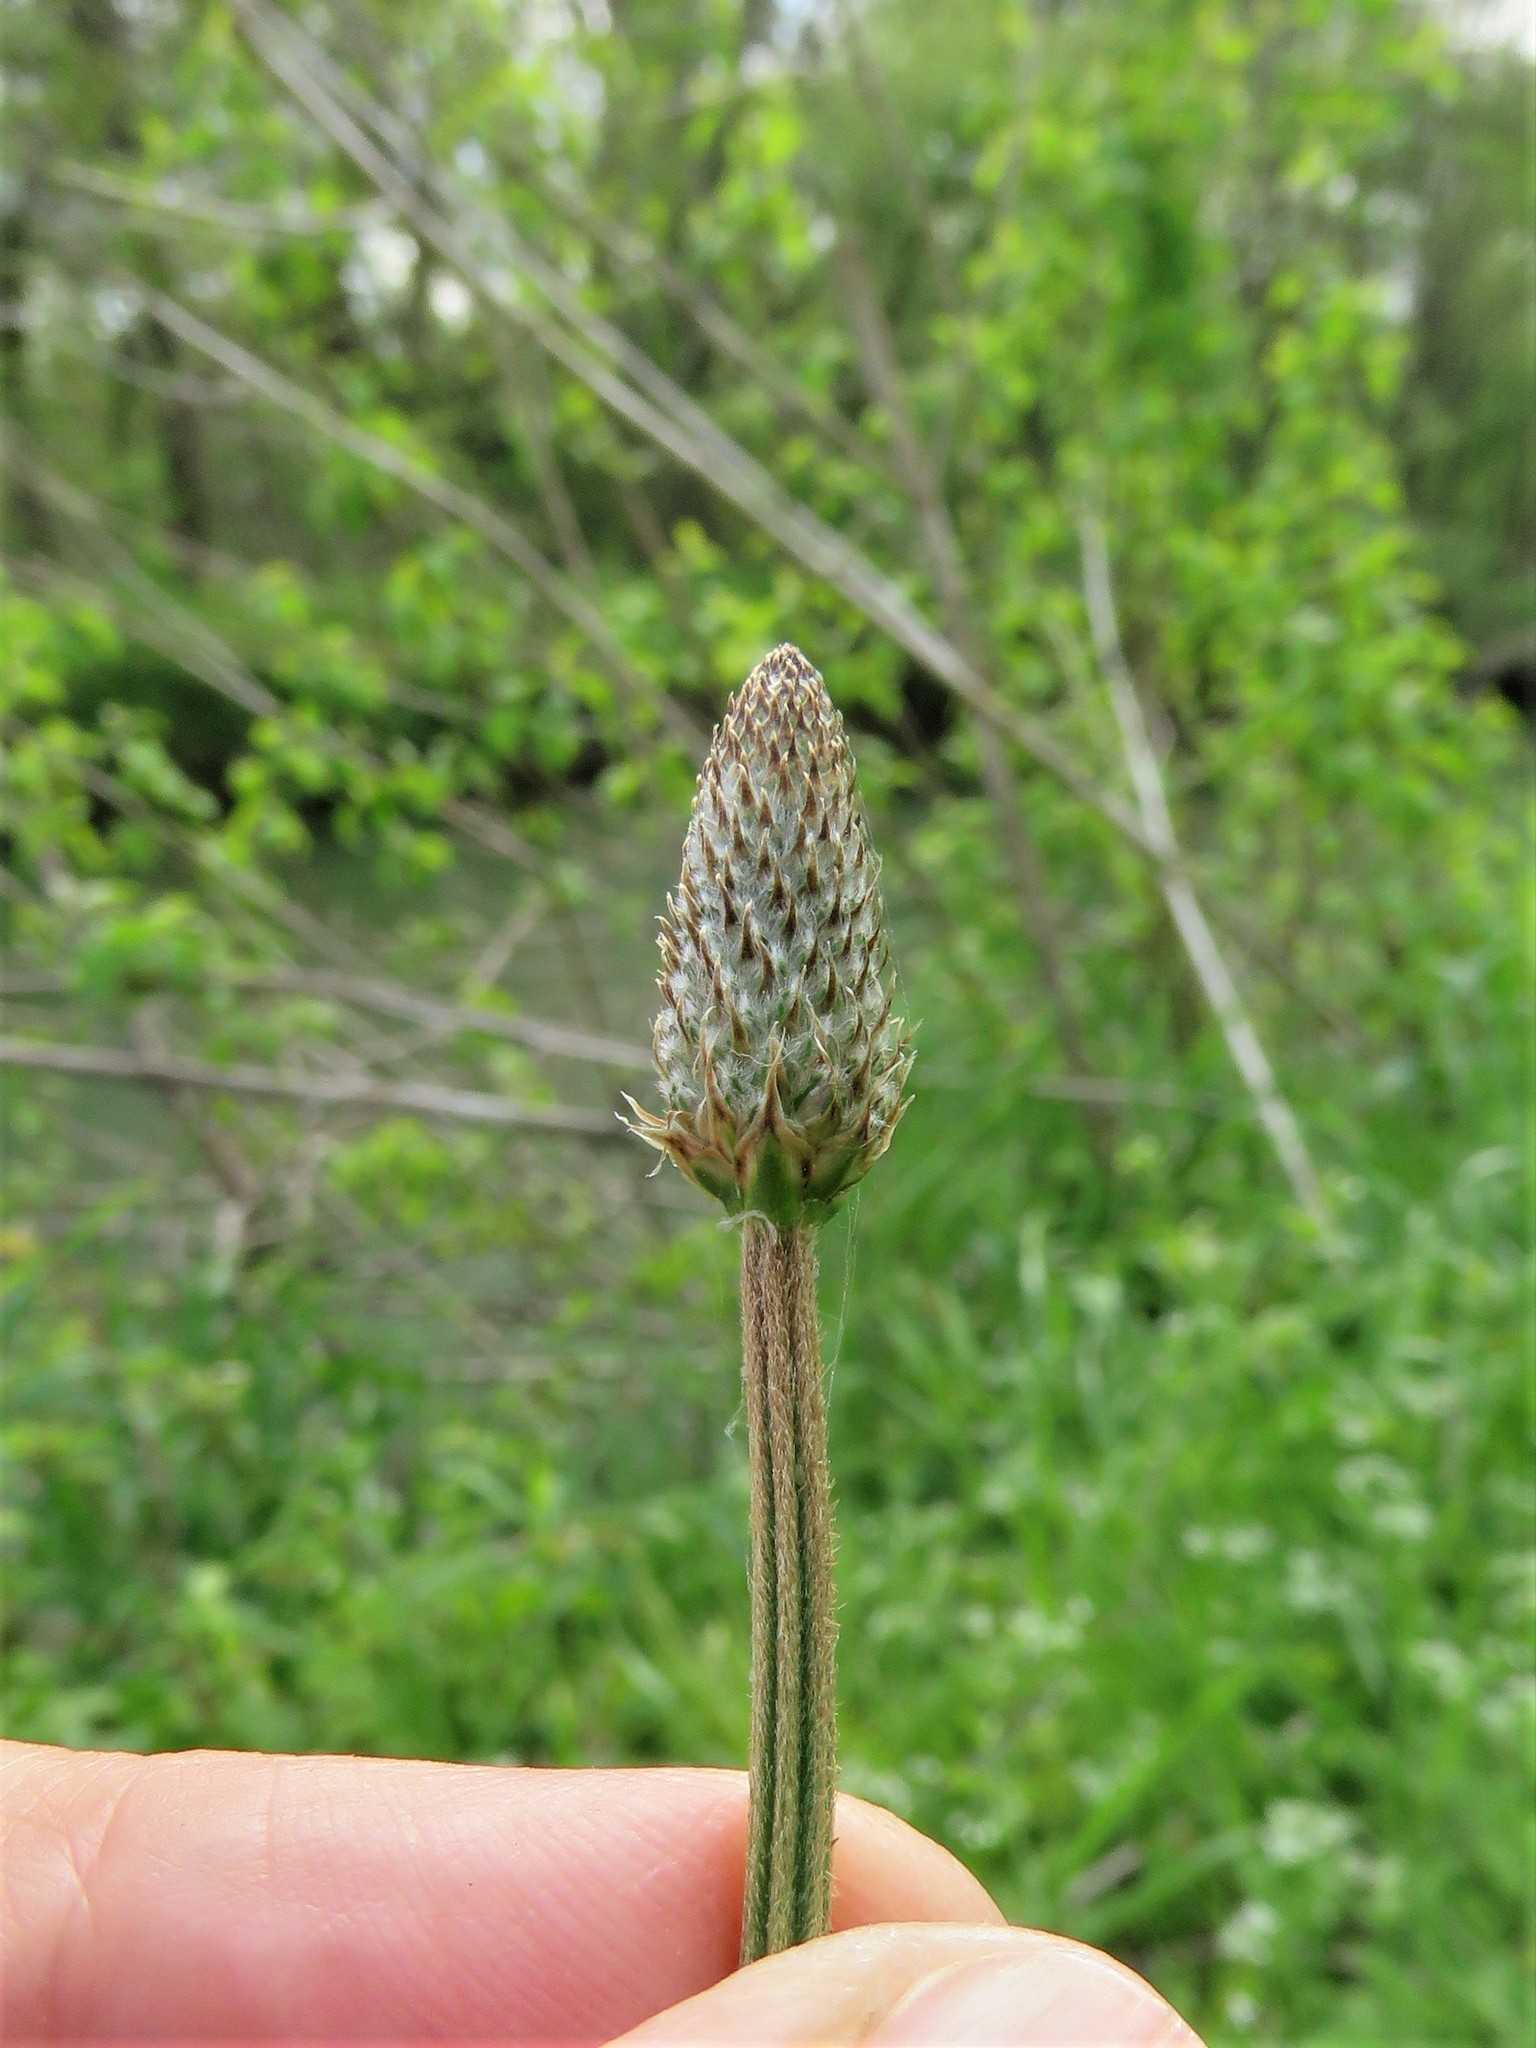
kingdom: Plantae
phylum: Tracheophyta
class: Magnoliopsida
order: Lamiales
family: Plantaginaceae
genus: Plantago
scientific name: Plantago lanceolata
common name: Ribwort plantain
